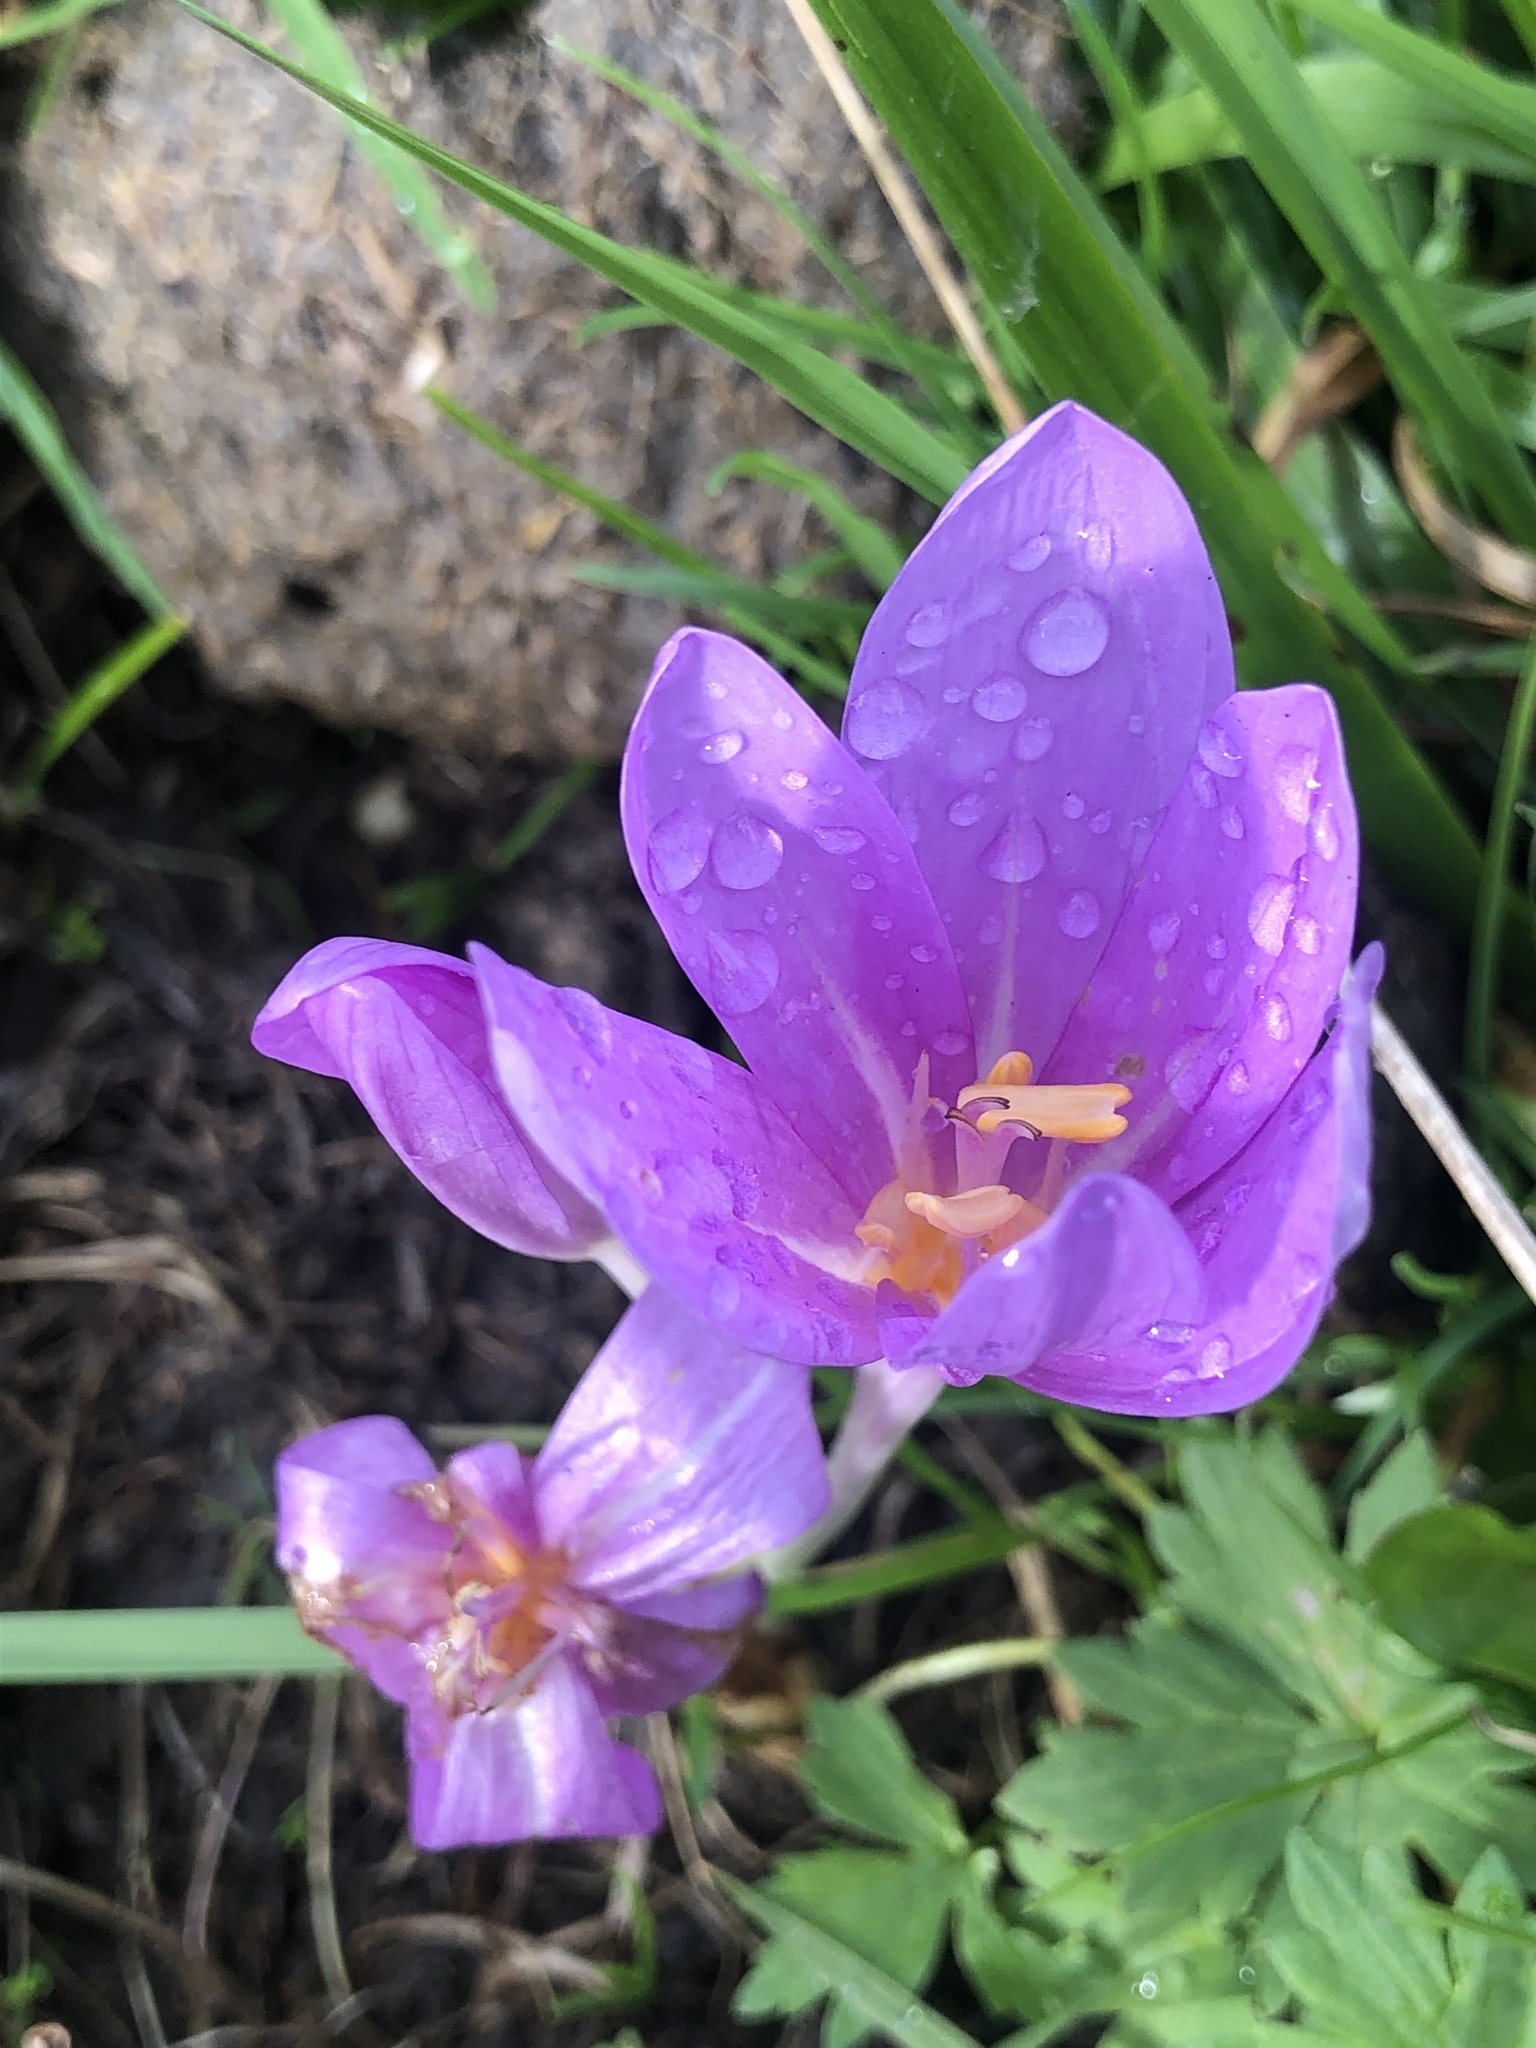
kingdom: Plantae
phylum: Tracheophyta
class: Liliopsida
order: Liliales
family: Colchicaceae
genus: Colchicum
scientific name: Colchicum autumnale
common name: Autumn crocus
